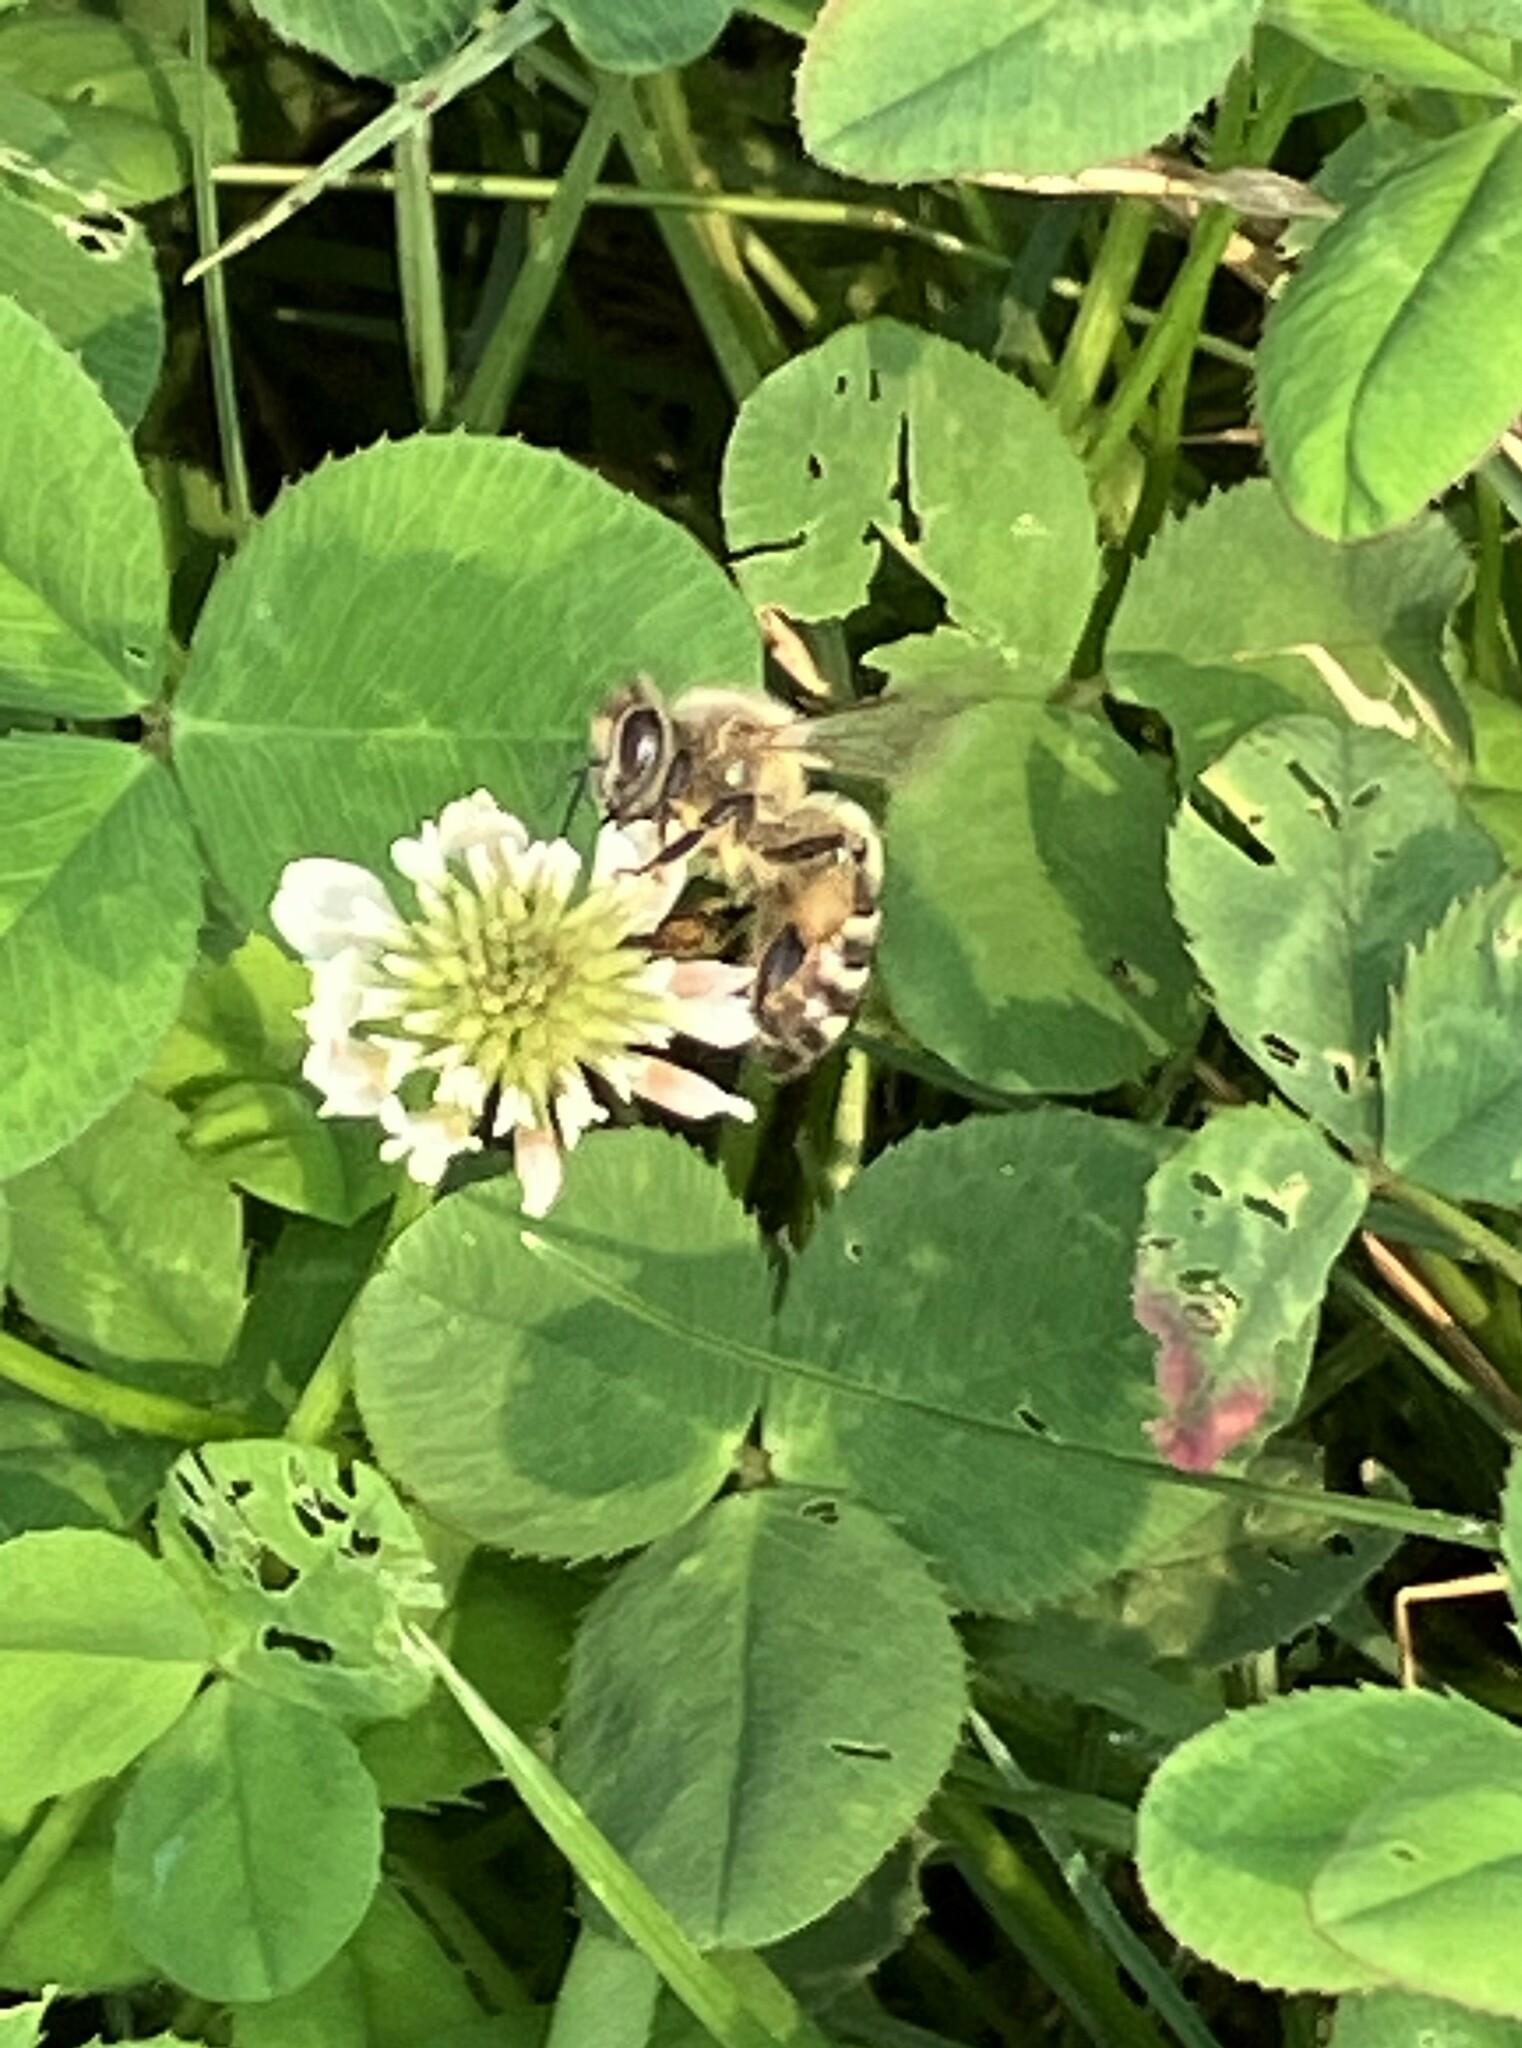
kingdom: Animalia
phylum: Arthropoda
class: Insecta
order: Hymenoptera
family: Apidae
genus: Apis
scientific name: Apis mellifera
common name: Honey bee
